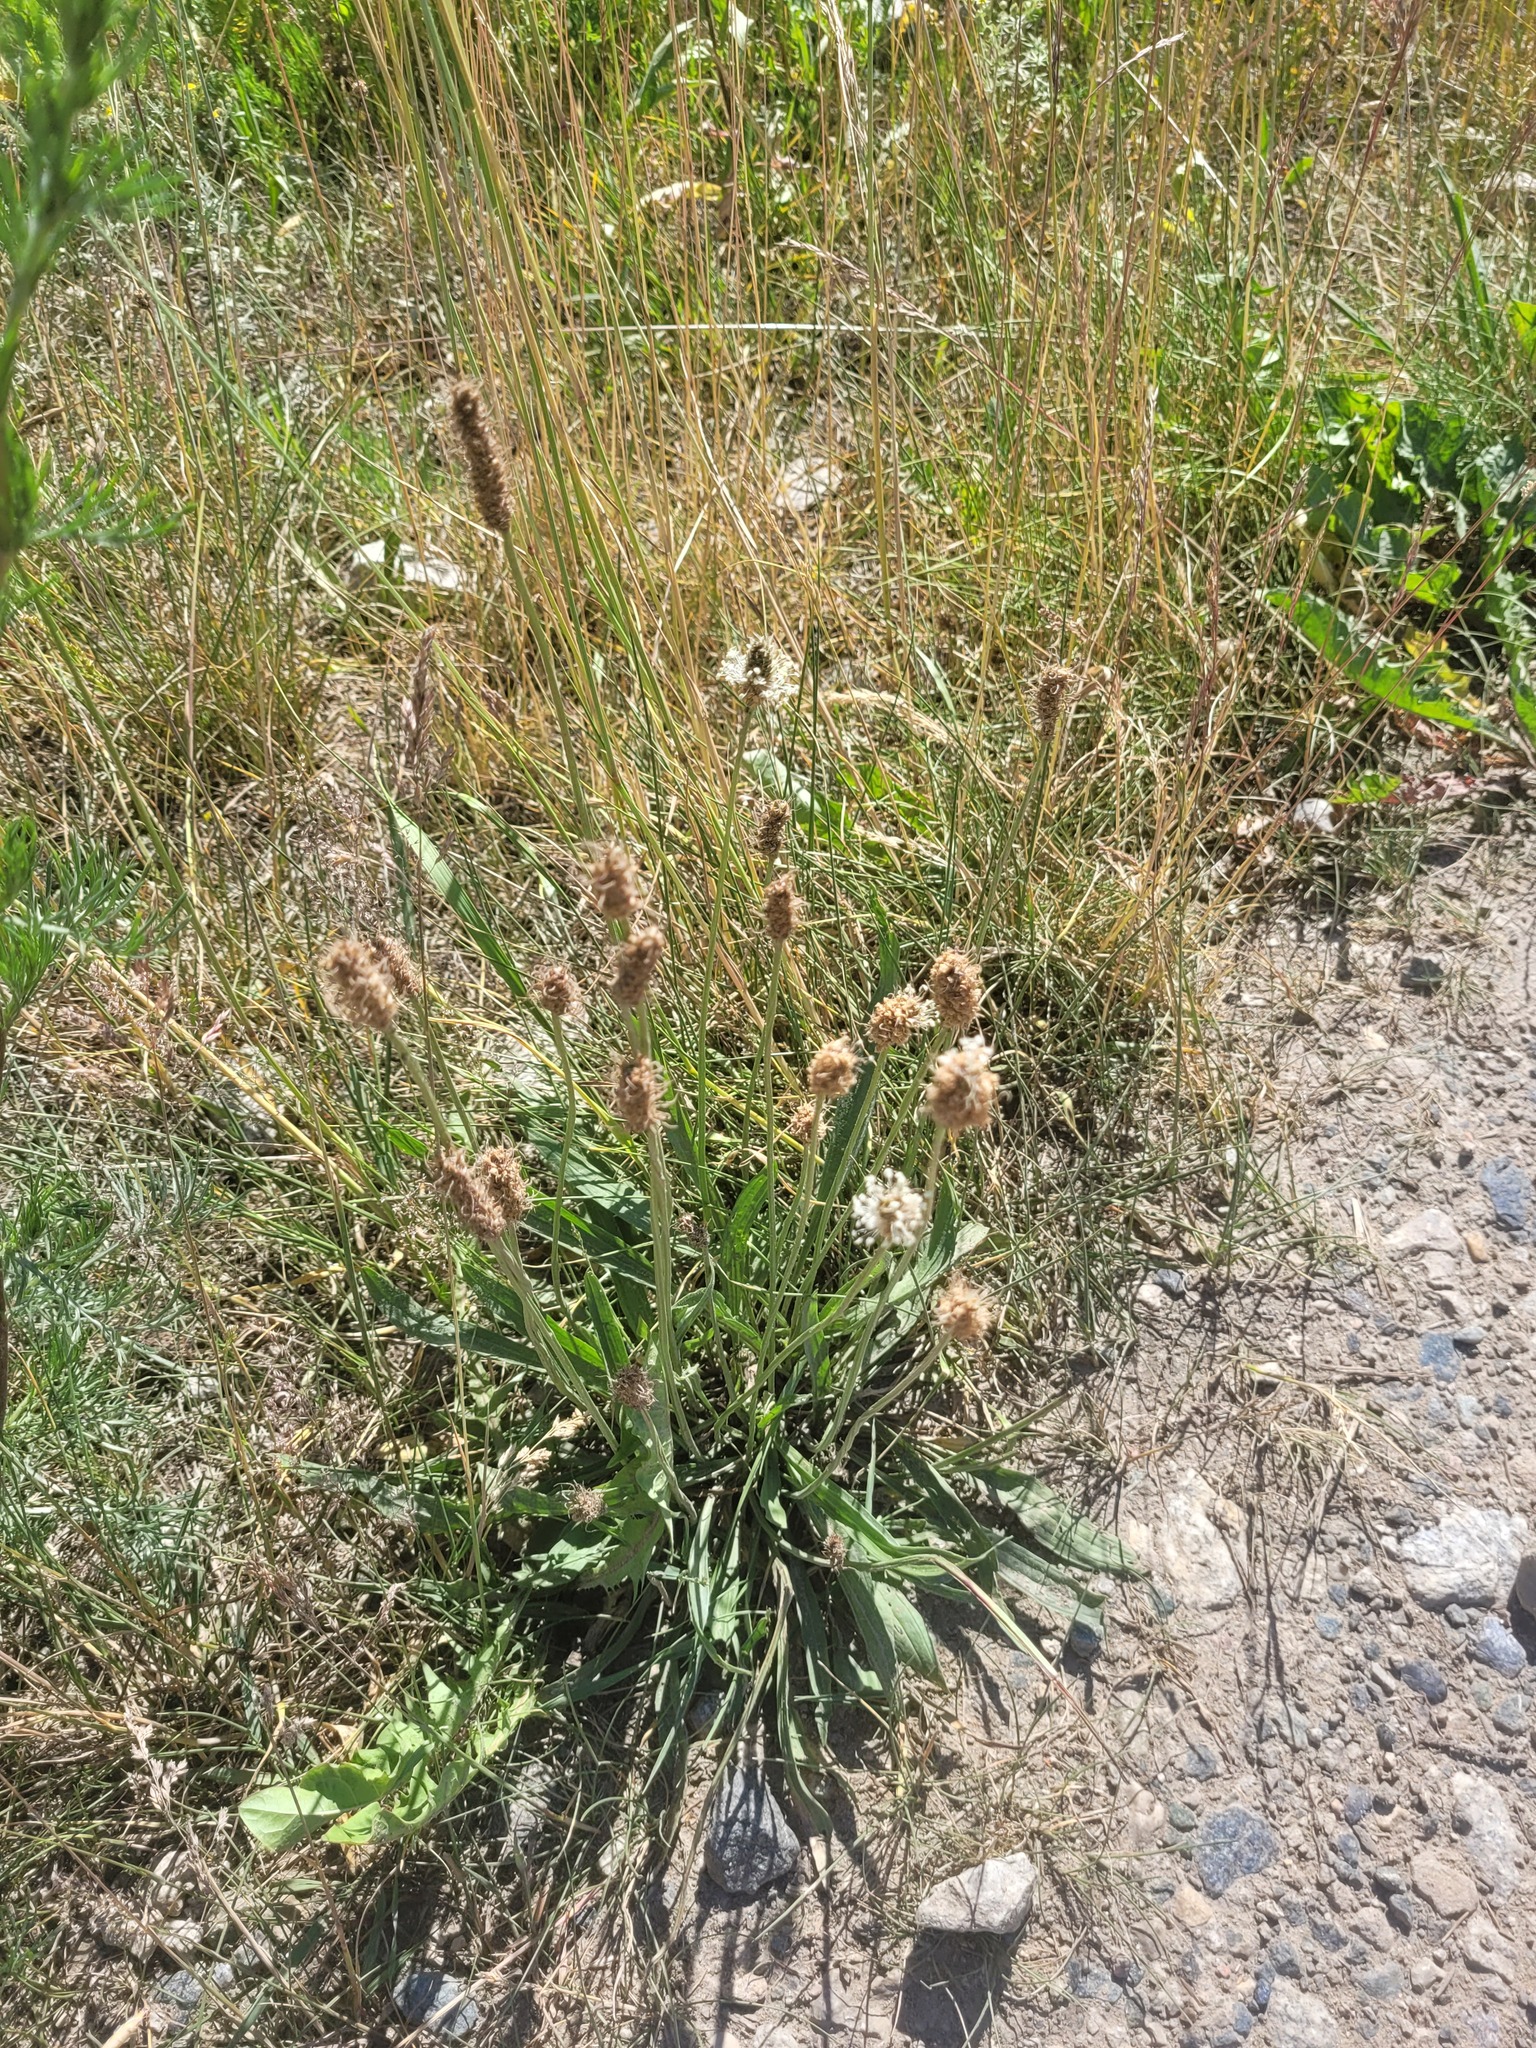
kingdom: Plantae
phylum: Tracheophyta
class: Magnoliopsida
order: Lamiales
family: Plantaginaceae
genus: Plantago
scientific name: Plantago lanceolata
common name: Ribwort plantain
